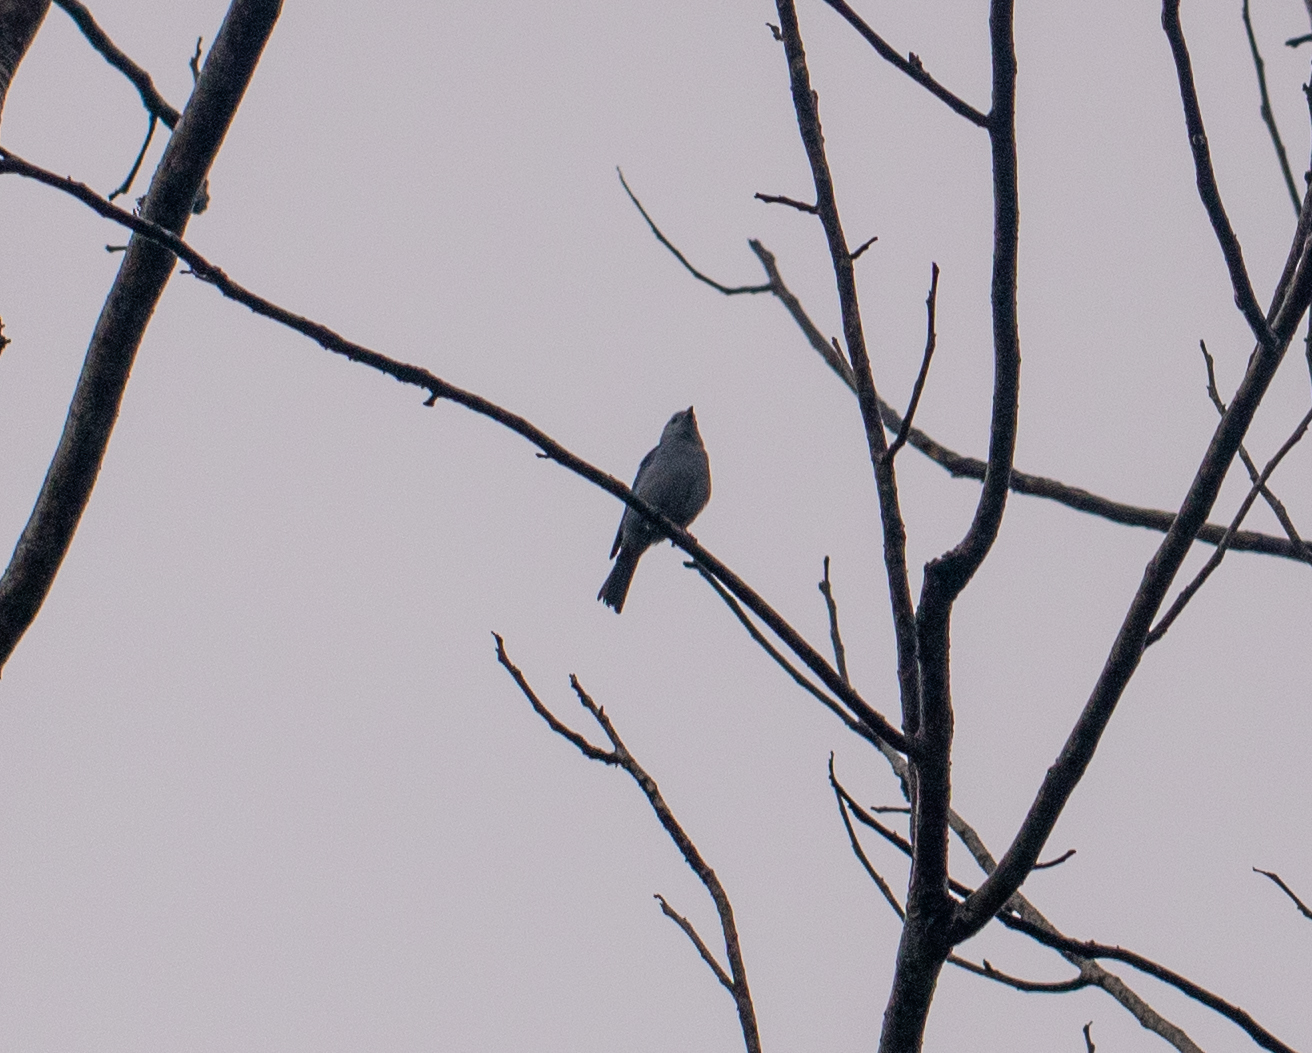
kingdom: Animalia
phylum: Chordata
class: Aves
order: Passeriformes
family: Thraupidae
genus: Thraupis
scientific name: Thraupis episcopus
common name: Blue-grey tanager
